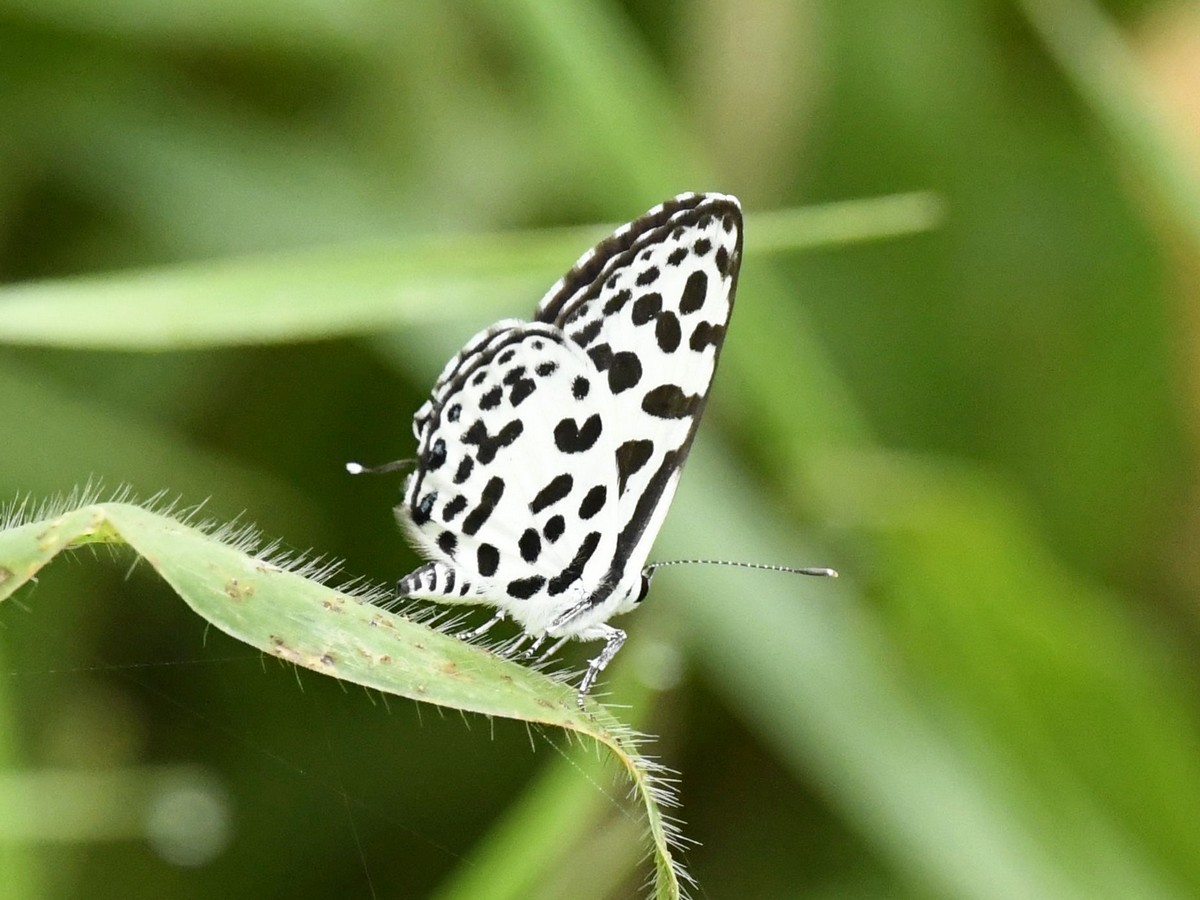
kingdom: Animalia
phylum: Arthropoda
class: Insecta
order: Lepidoptera
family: Lycaenidae
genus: Castalius
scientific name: Castalius rosimon
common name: Common pierrot
